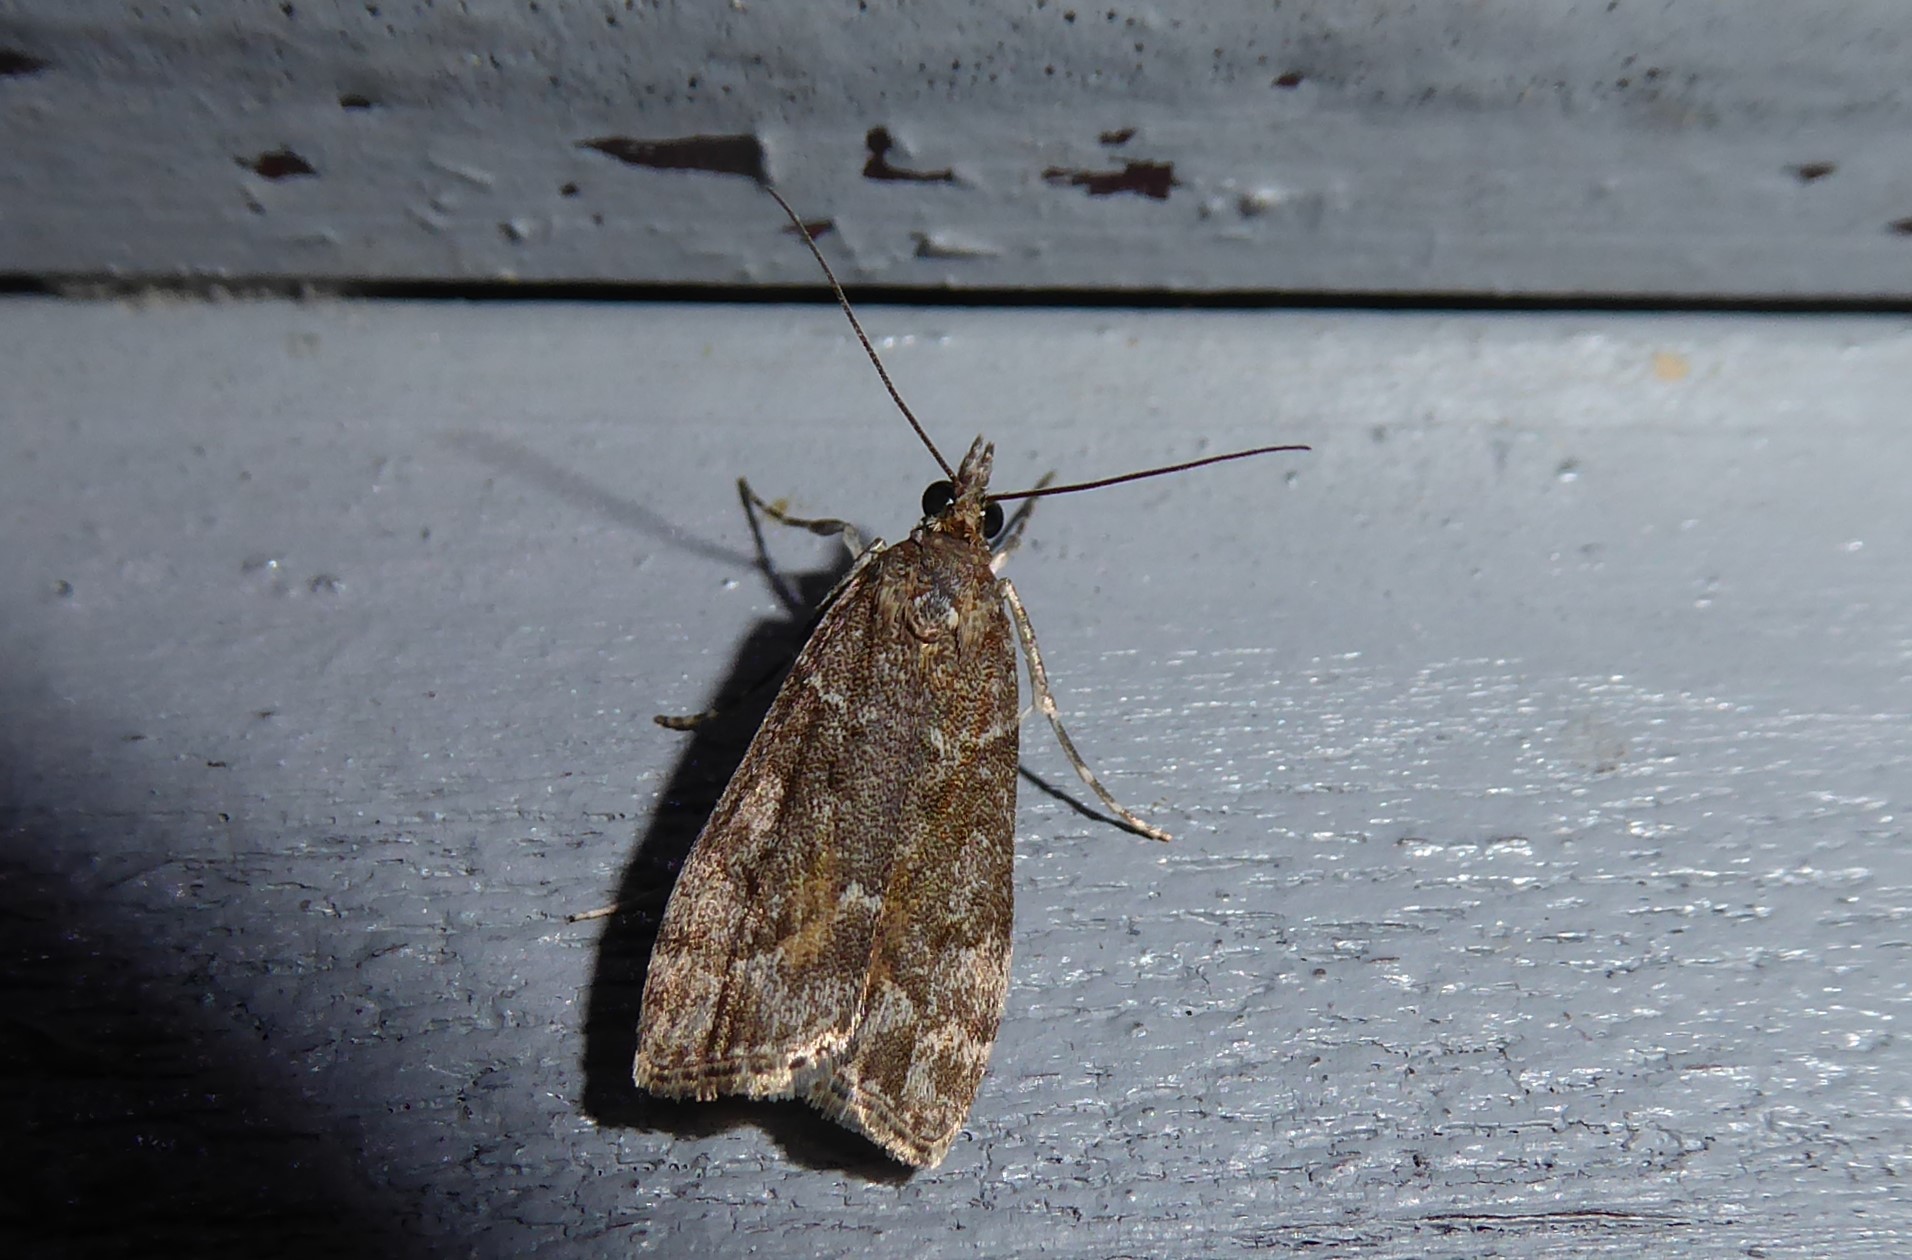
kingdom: Animalia
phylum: Arthropoda
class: Insecta
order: Lepidoptera
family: Crambidae
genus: Eudonia
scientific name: Eudonia submarginalis
